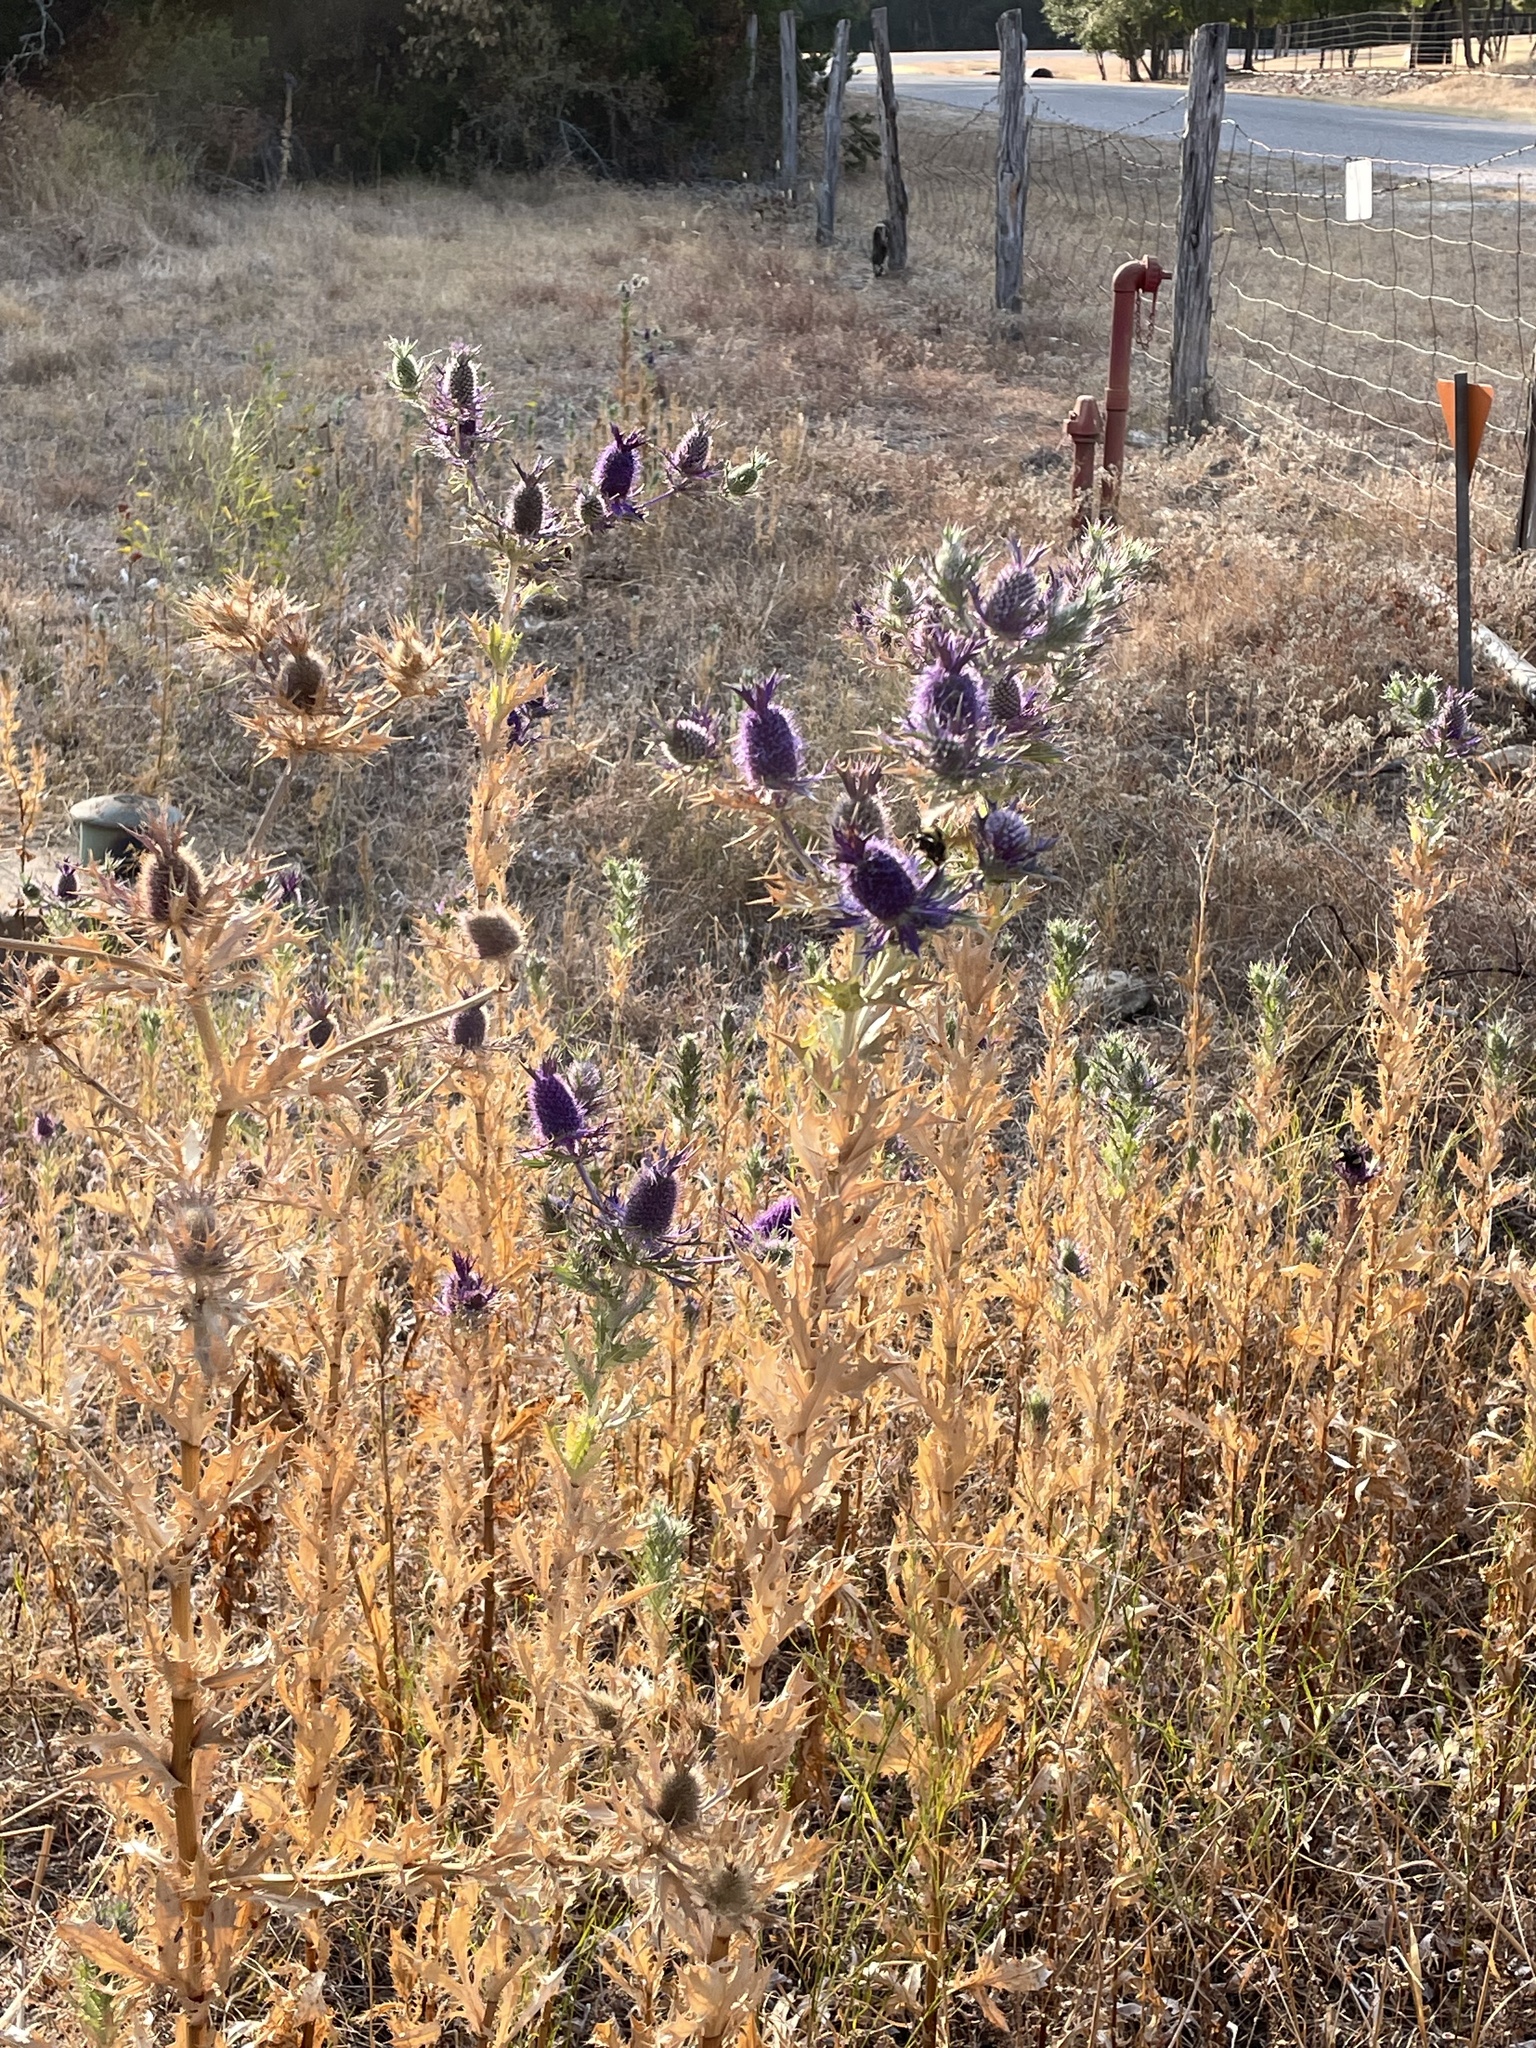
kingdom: Plantae
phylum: Tracheophyta
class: Magnoliopsida
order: Apiales
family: Apiaceae
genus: Eryngium
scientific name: Eryngium leavenworthii
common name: Leavenworth's eryngo
